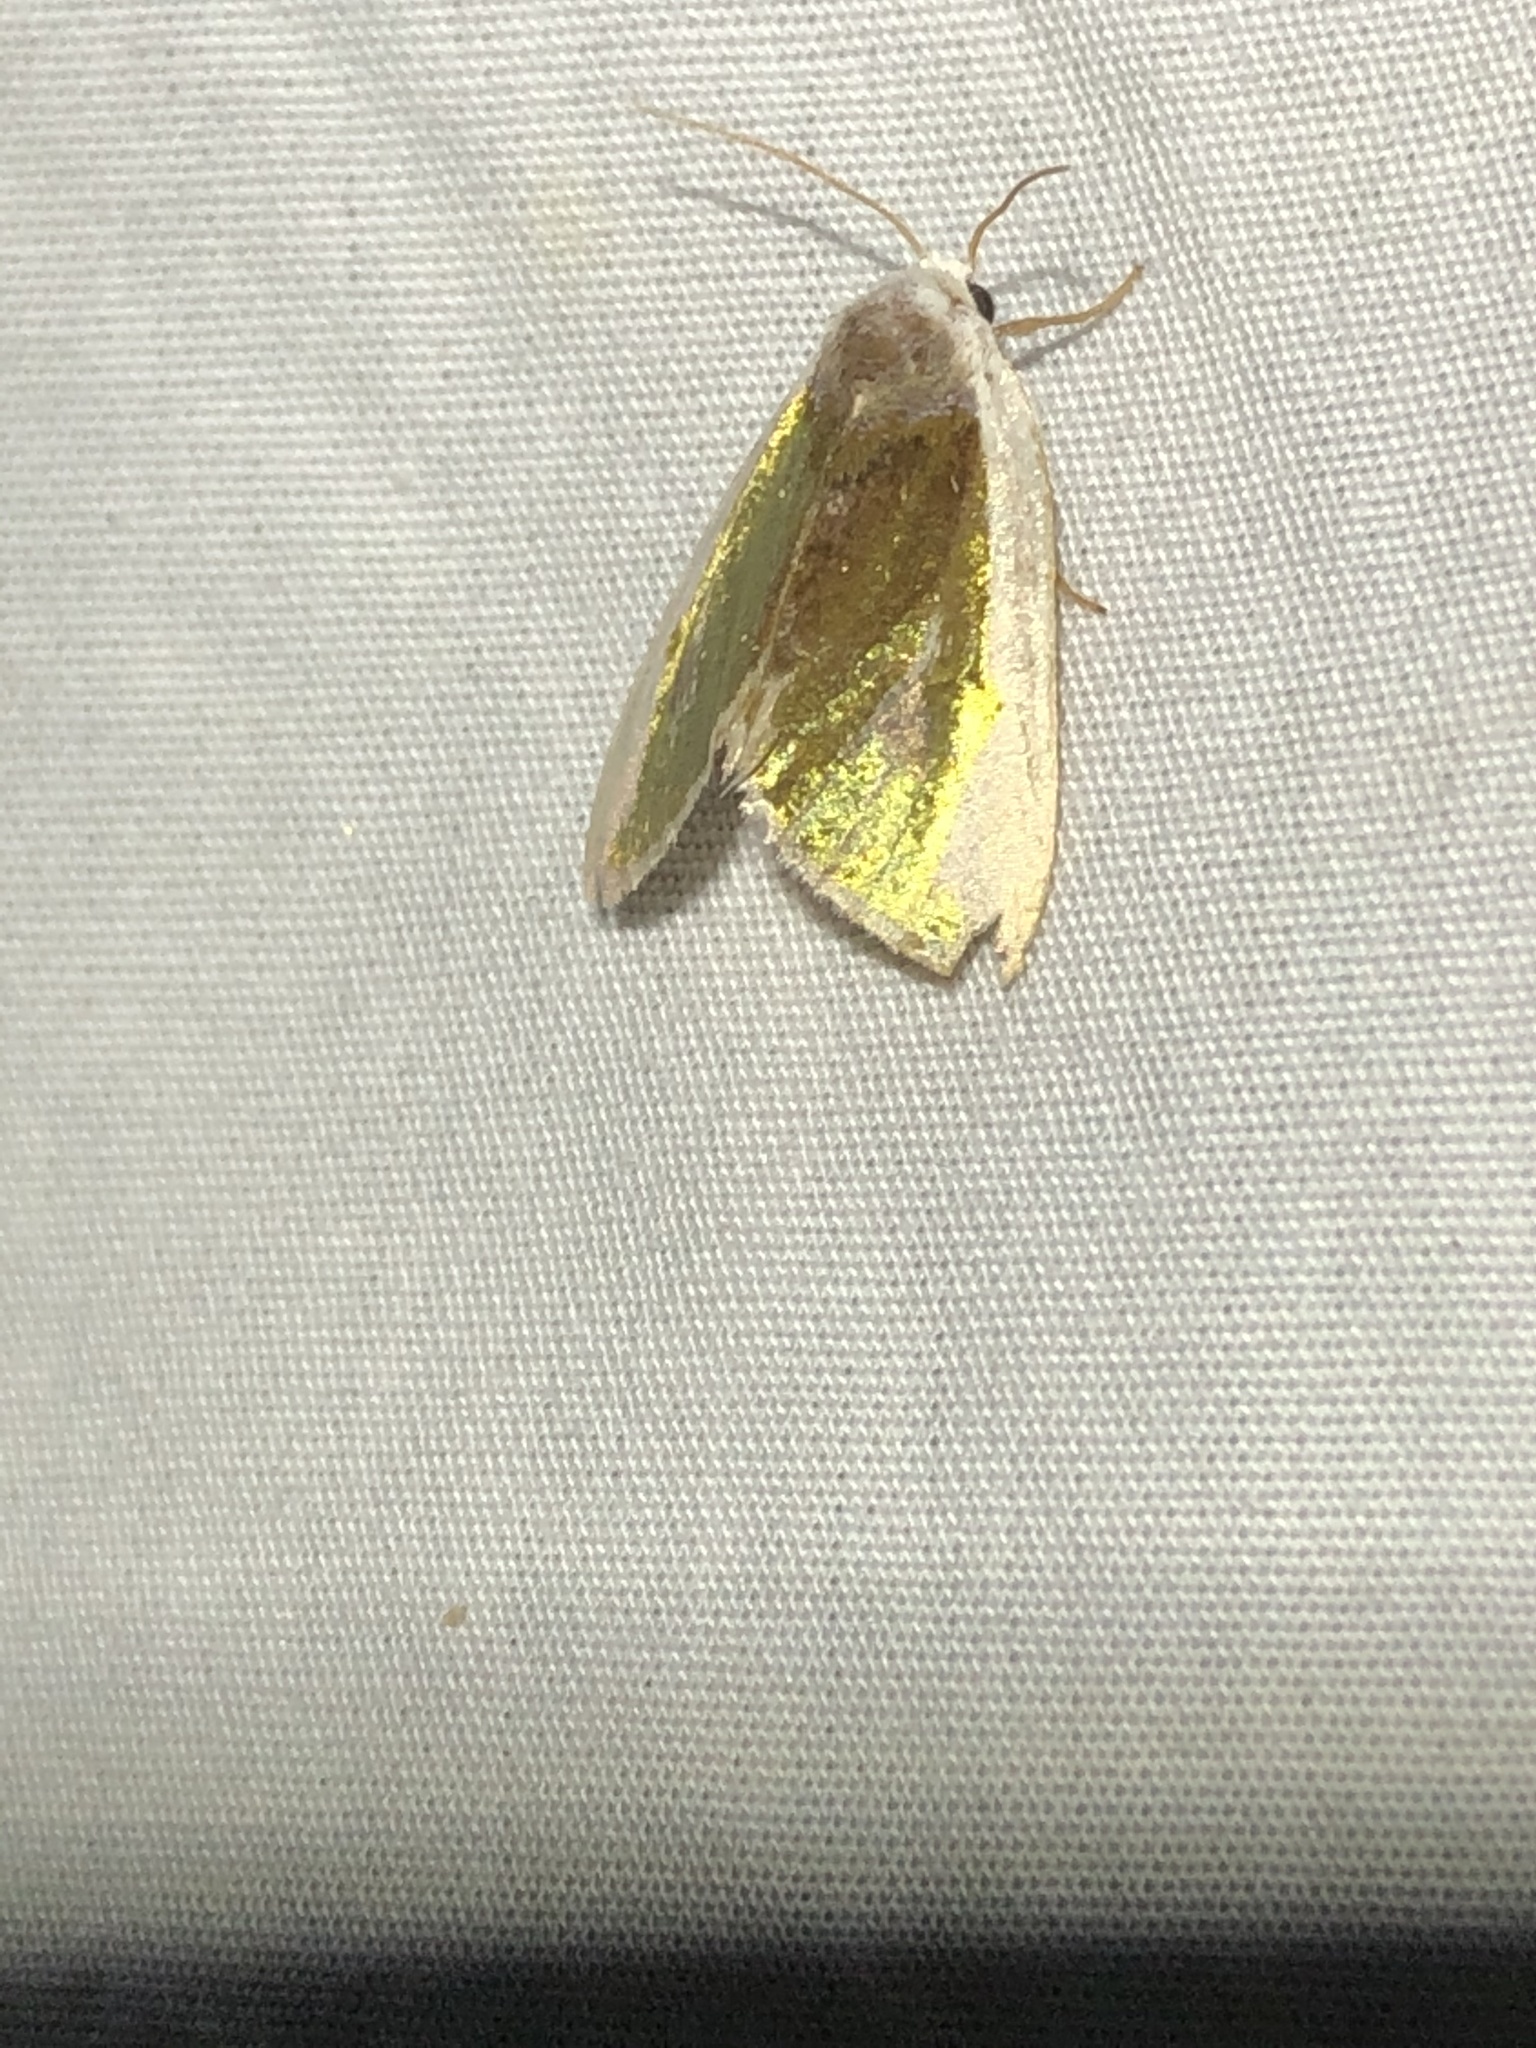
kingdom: Animalia
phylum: Arthropoda
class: Insecta
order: Lepidoptera
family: Noctuidae
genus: Neumoegenia
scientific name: Neumoegenia poetica
